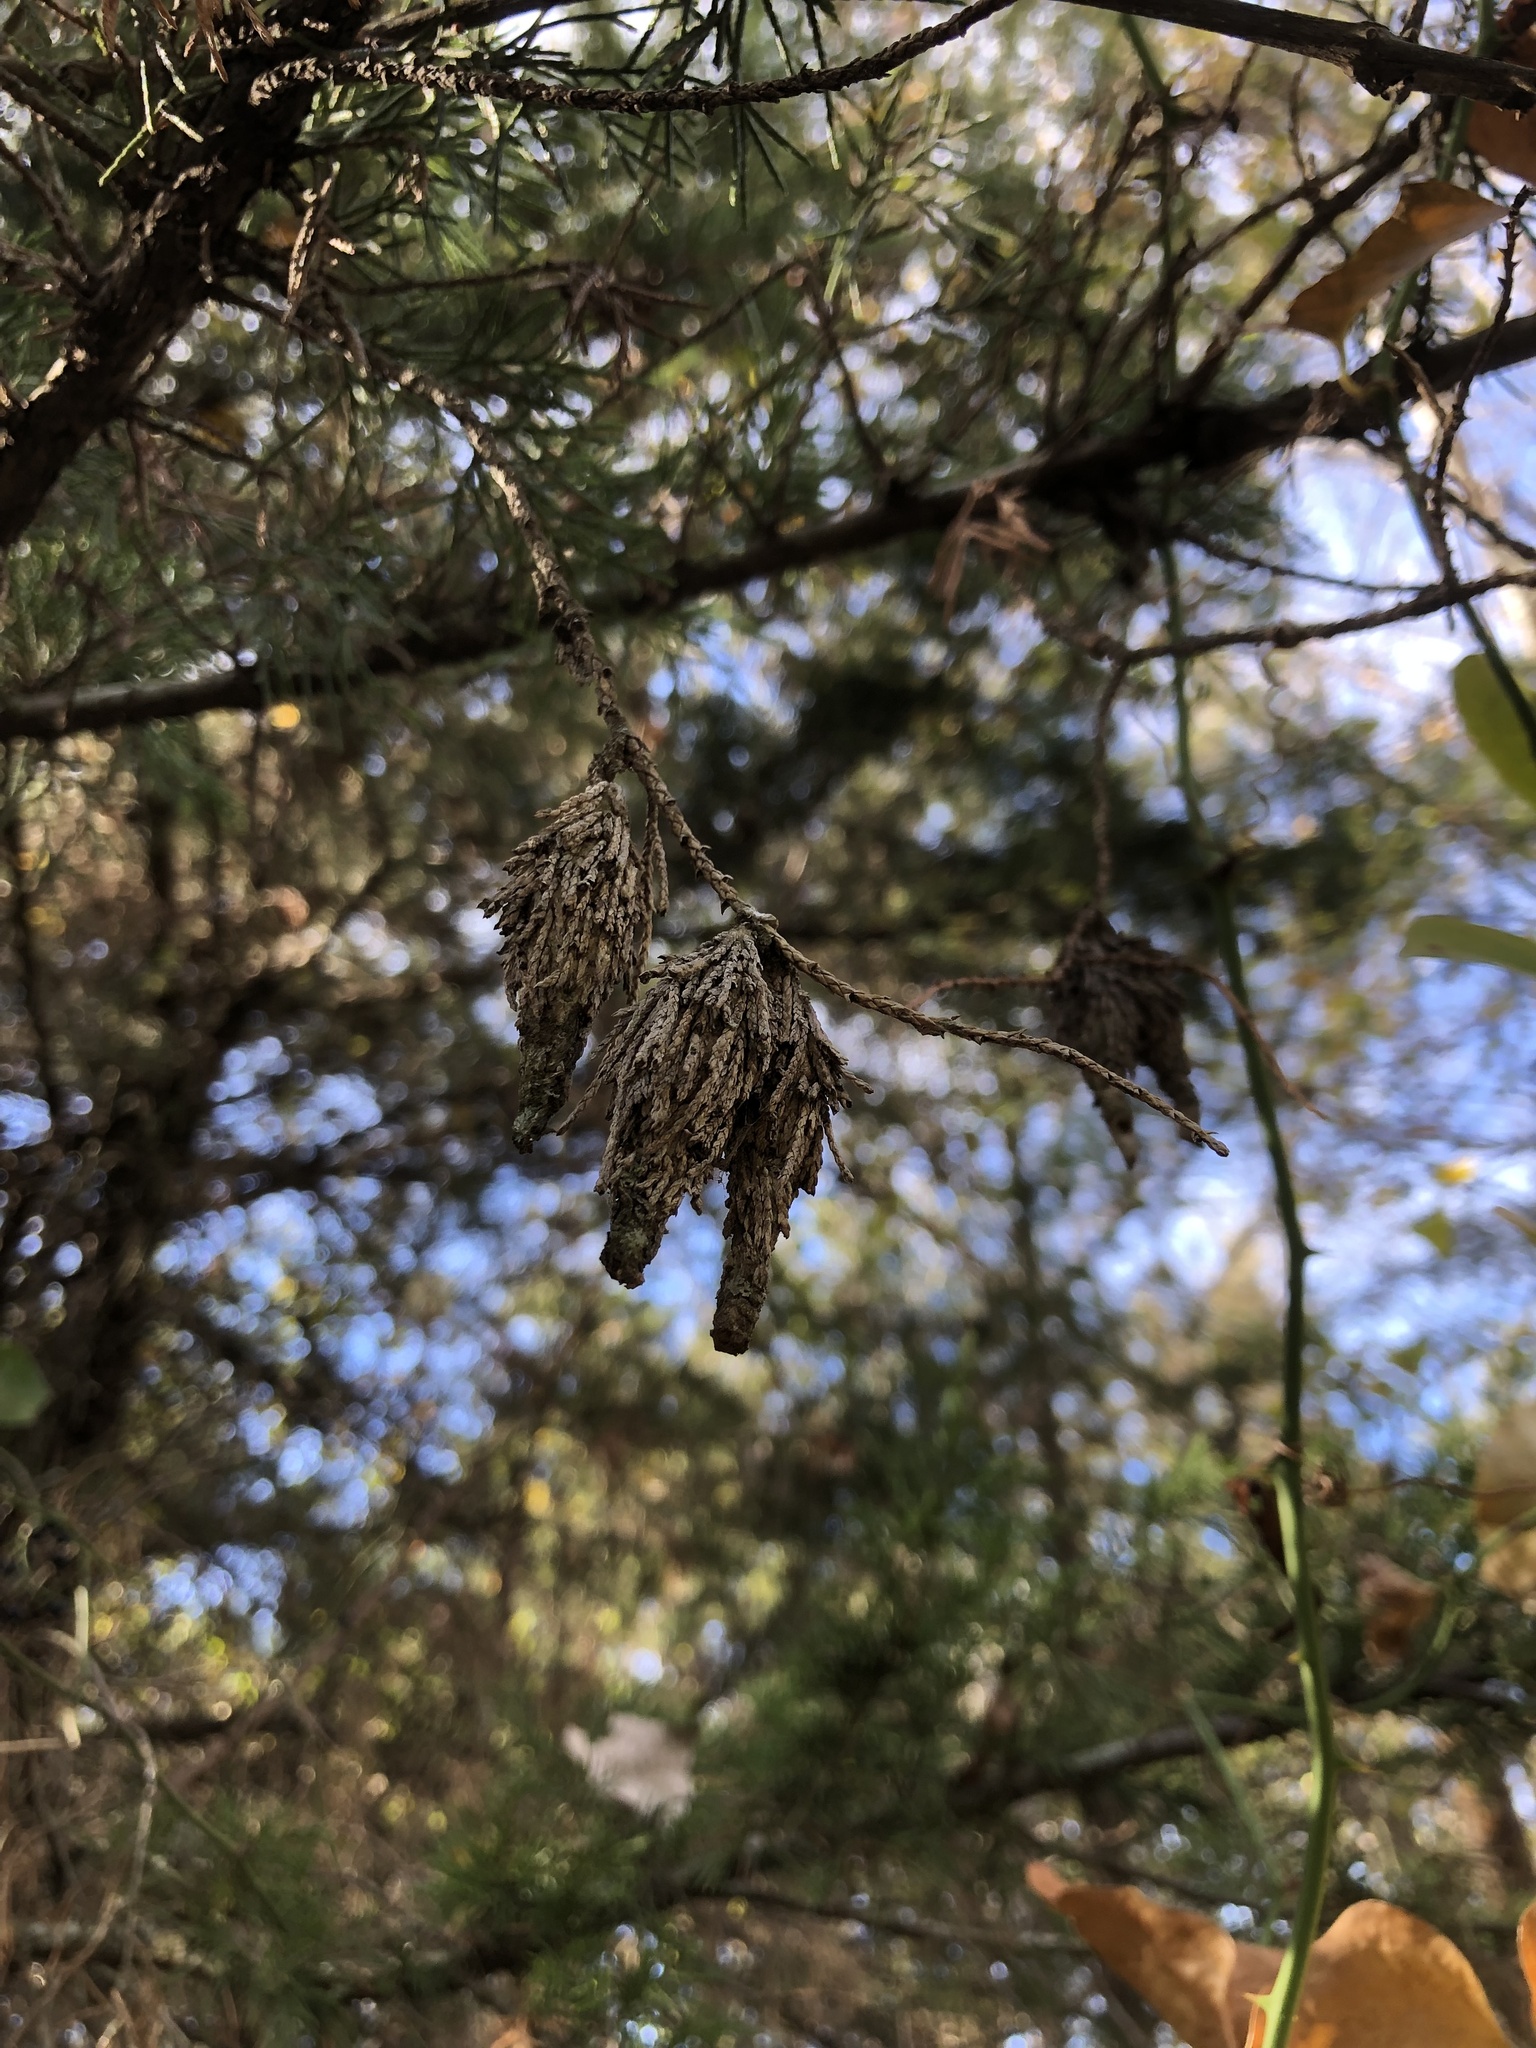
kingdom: Animalia
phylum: Arthropoda
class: Insecta
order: Lepidoptera
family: Psychidae
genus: Thyridopteryx
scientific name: Thyridopteryx ephemeraeformis
